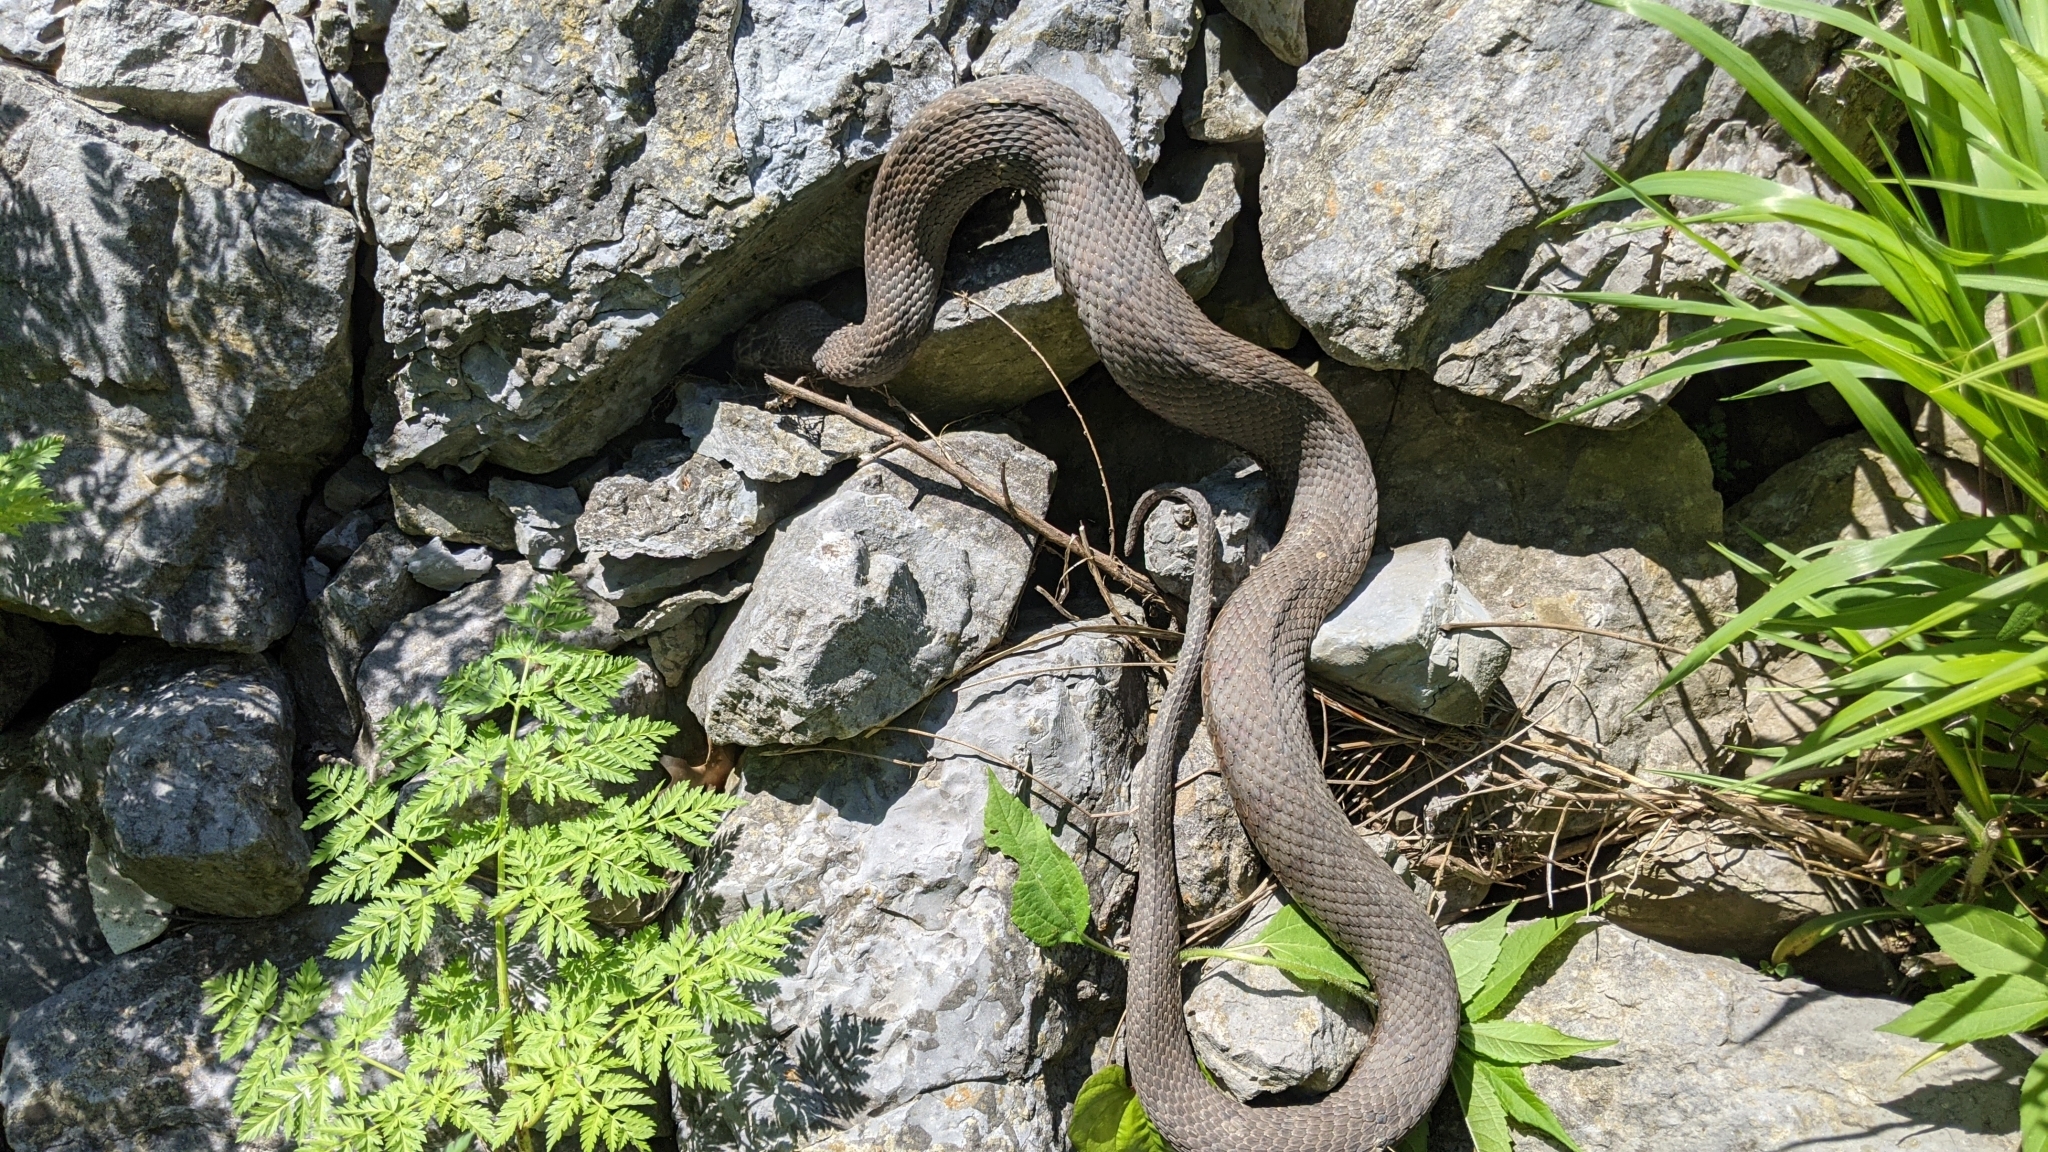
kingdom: Animalia
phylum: Chordata
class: Squamata
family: Colubridae
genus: Nerodia
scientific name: Nerodia sipedon
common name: Northern water snake
